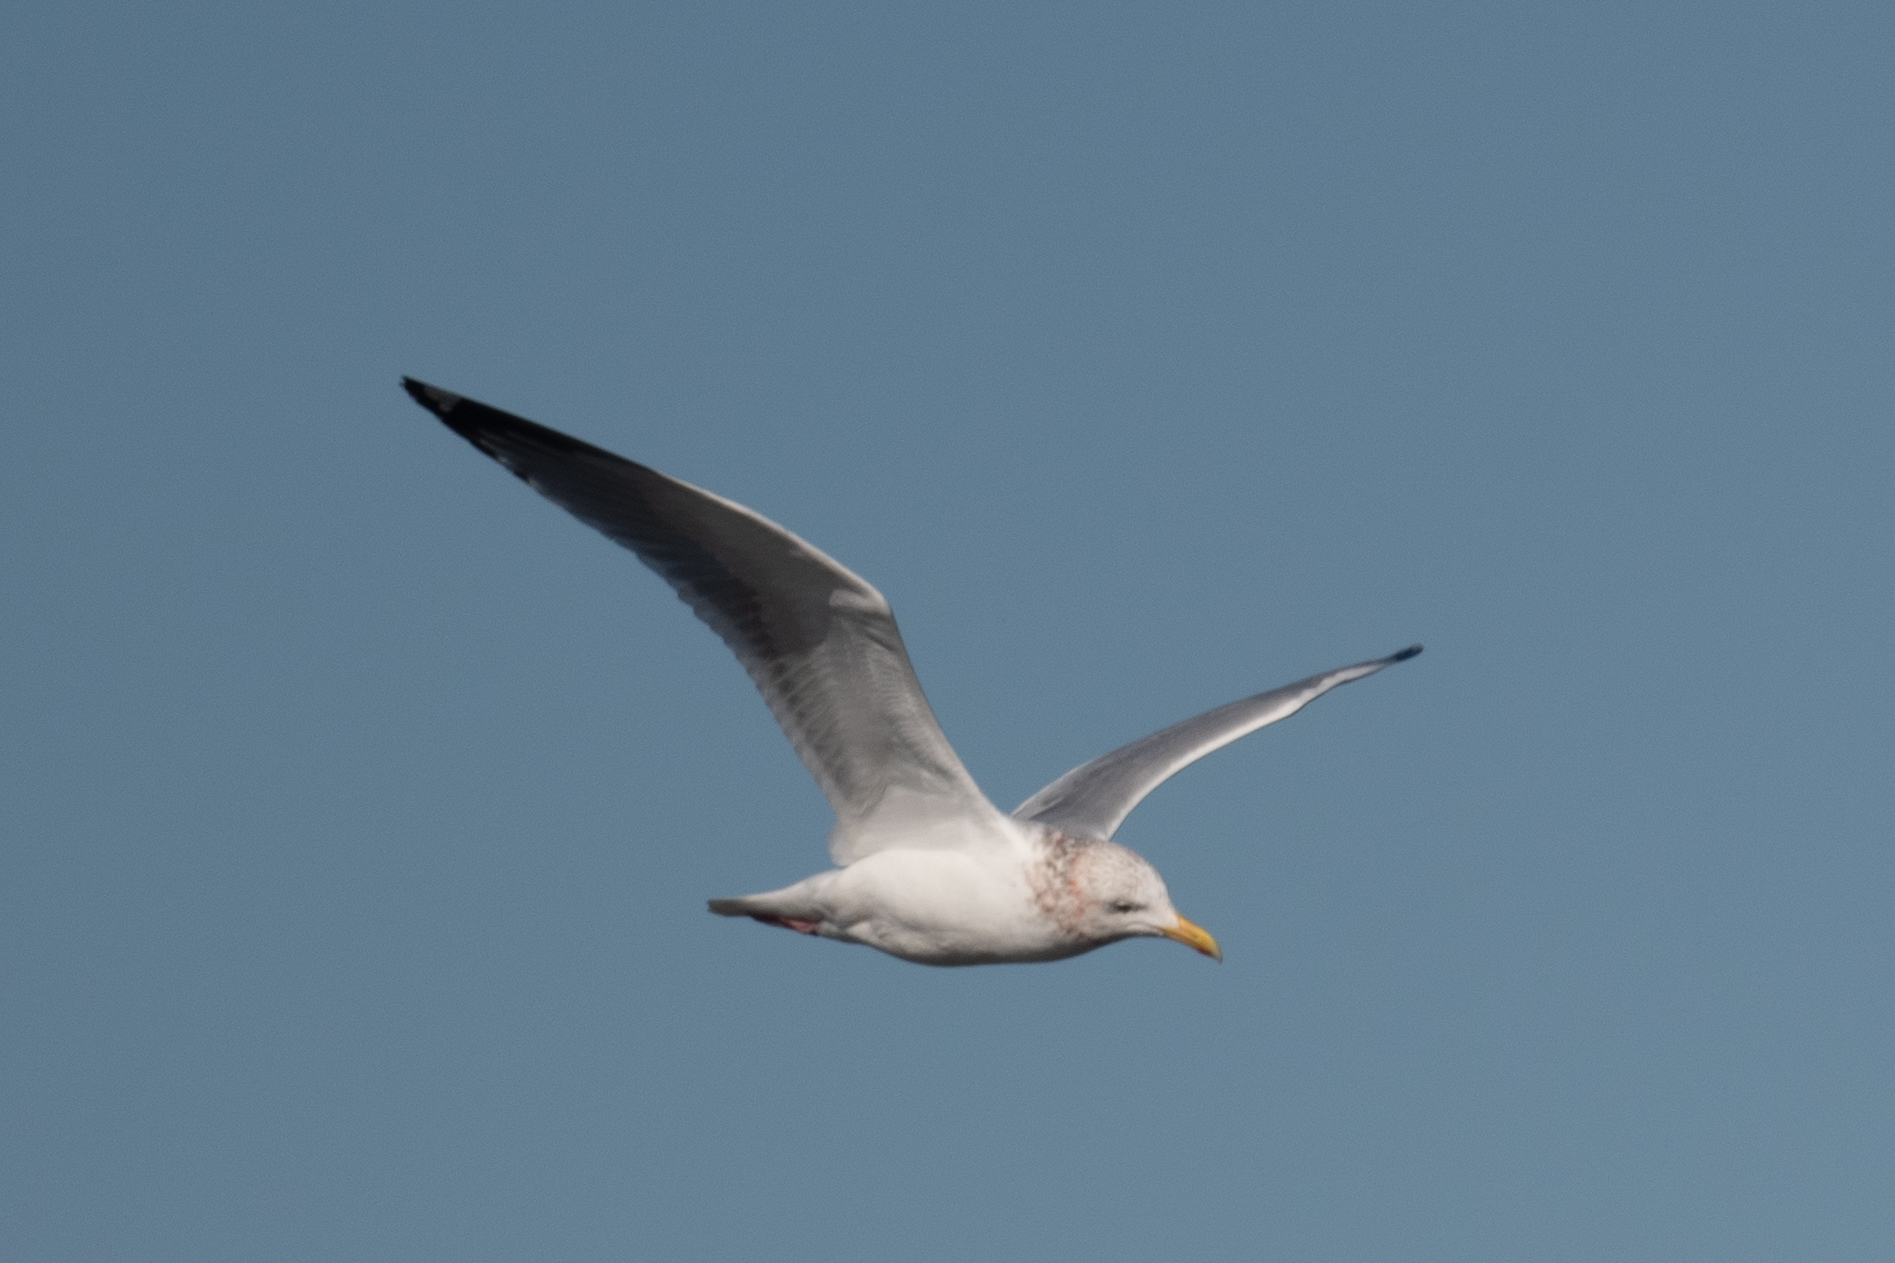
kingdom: Animalia
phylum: Chordata
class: Aves
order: Charadriiformes
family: Laridae
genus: Larus
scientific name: Larus argentatus
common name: Herring gull
